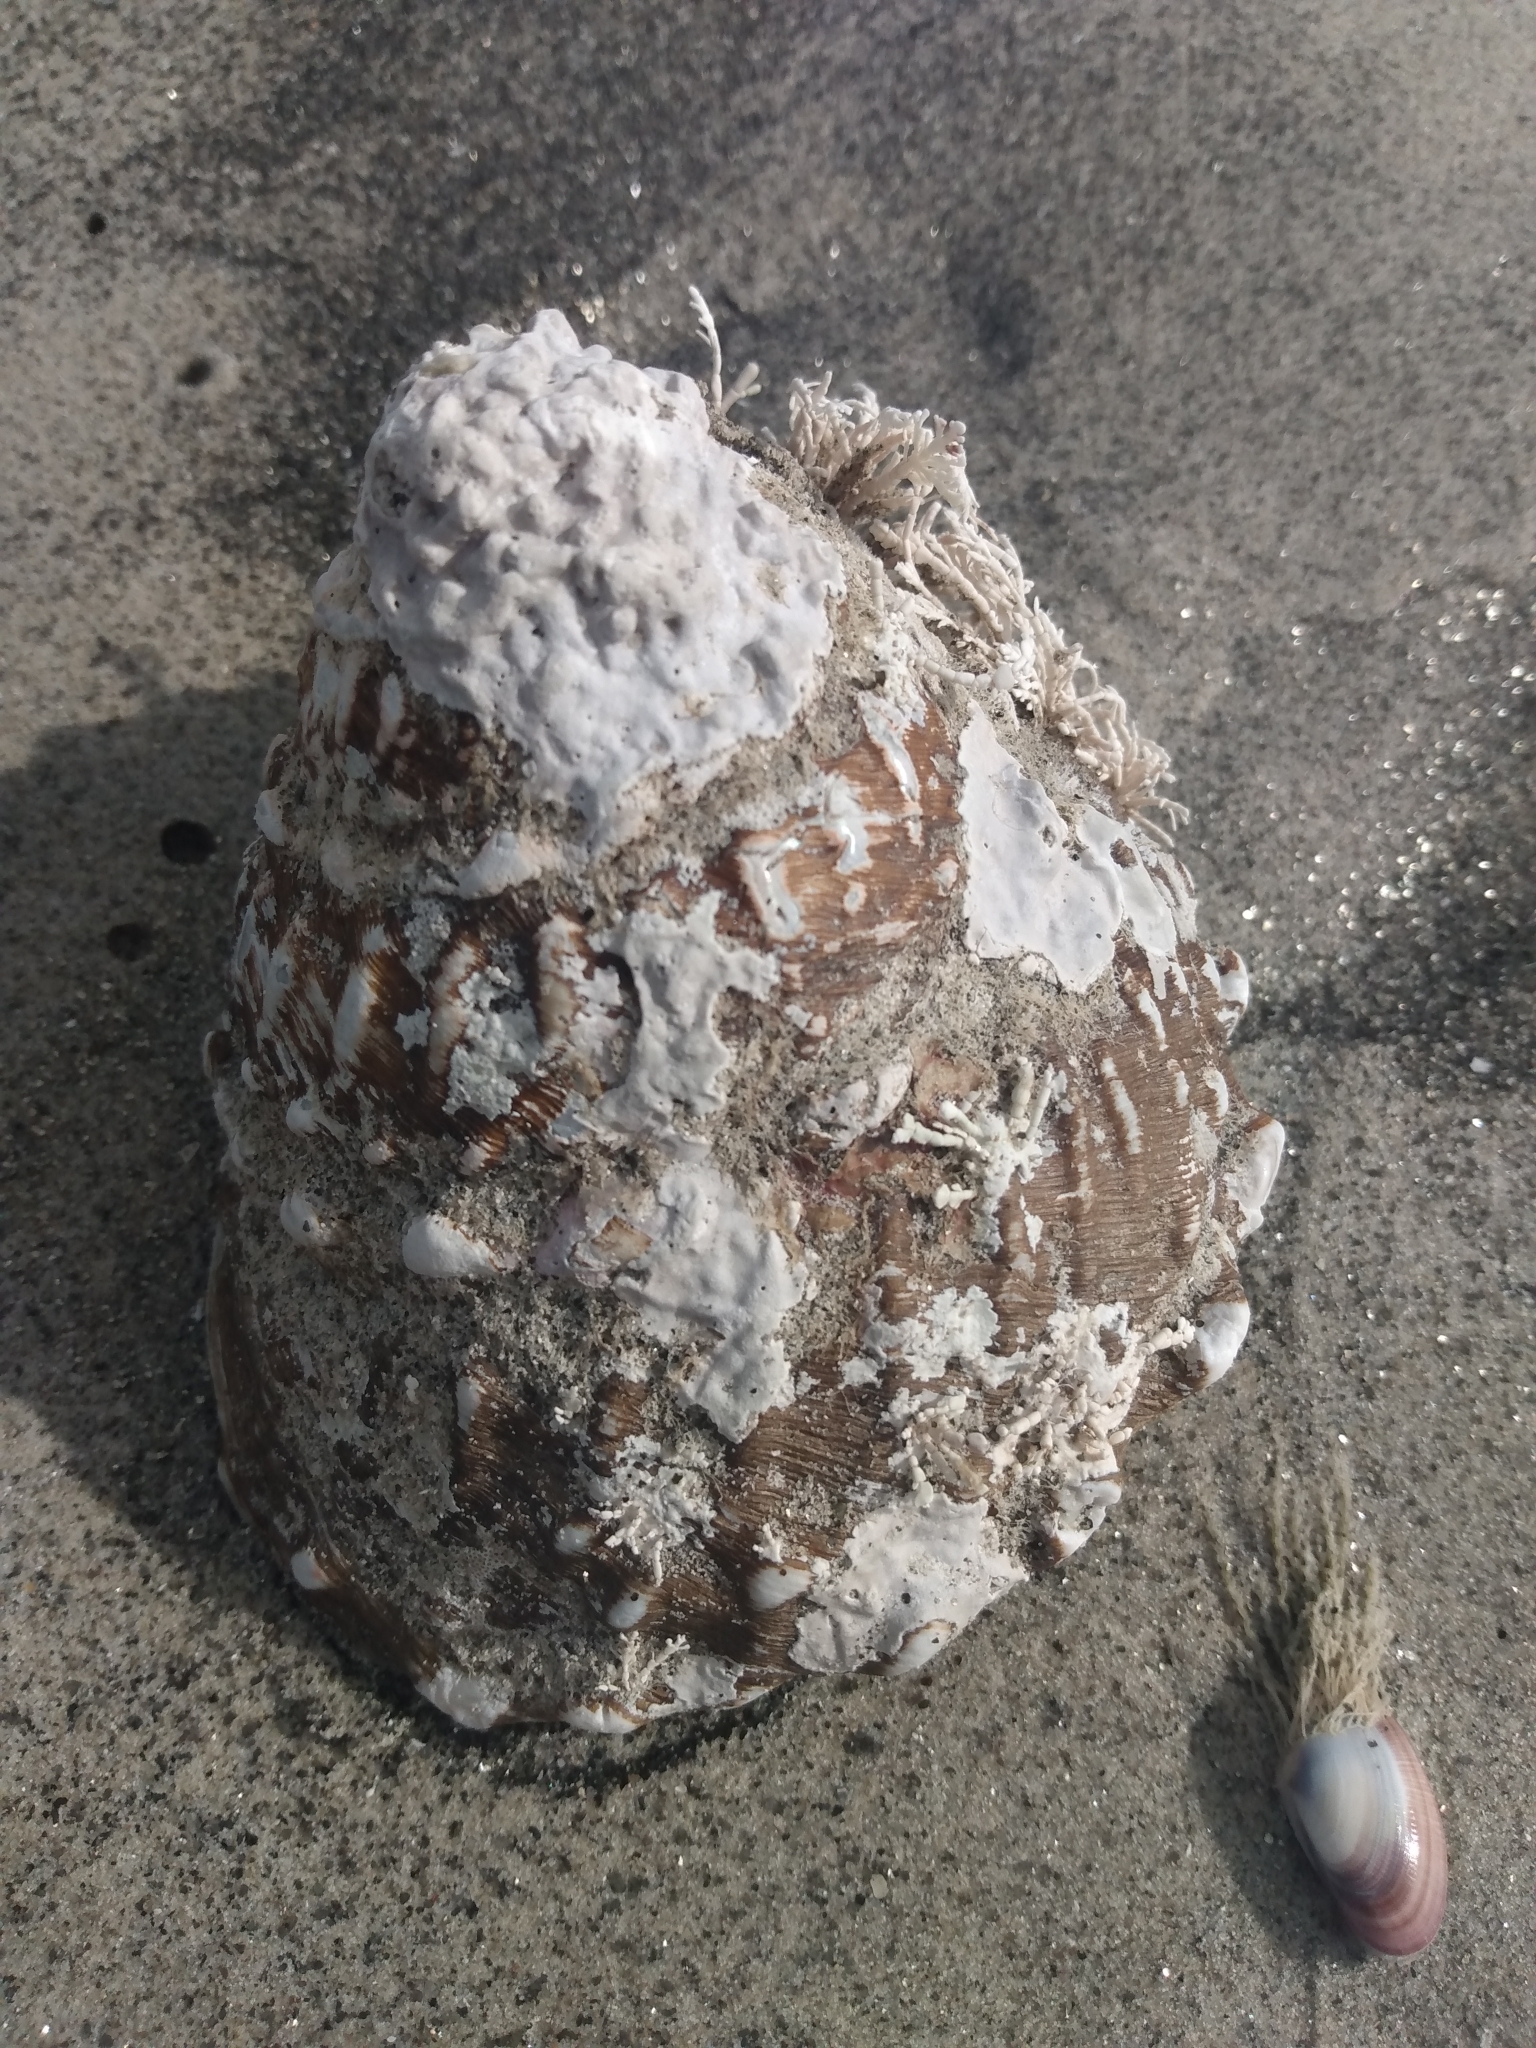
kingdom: Animalia
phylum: Mollusca
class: Gastropoda
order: Trochida
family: Turbinidae
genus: Megastraea
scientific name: Megastraea undosa
